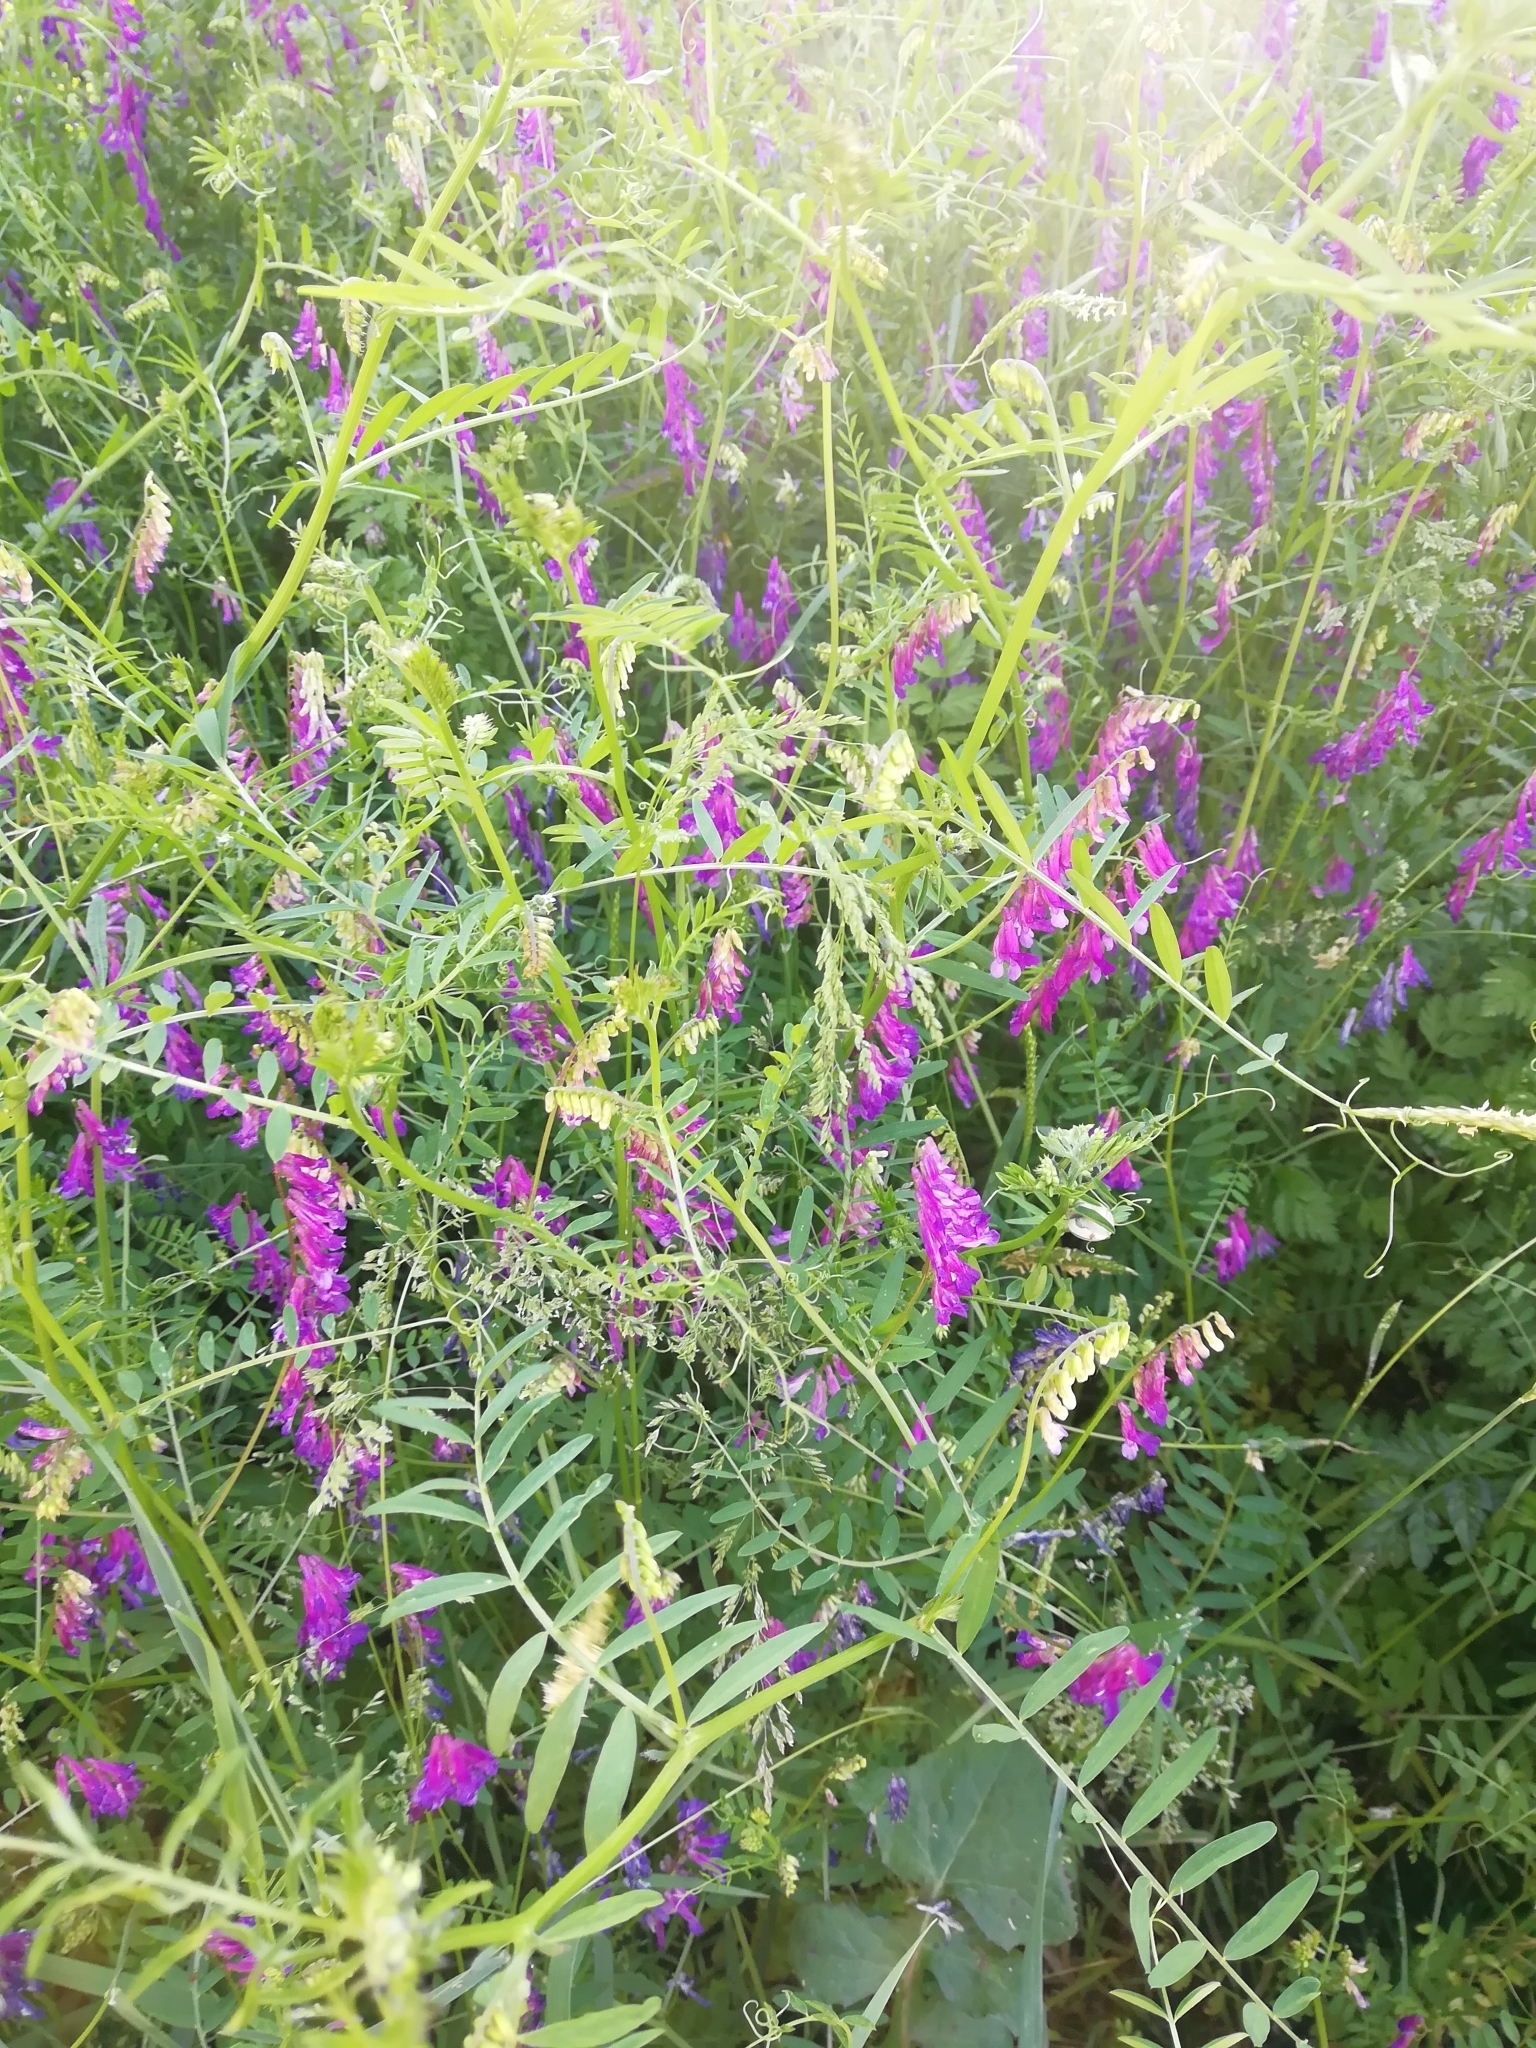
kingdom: Plantae
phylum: Tracheophyta
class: Magnoliopsida
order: Fabales
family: Fabaceae
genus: Vicia
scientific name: Vicia villosa
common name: Fodder vetch
